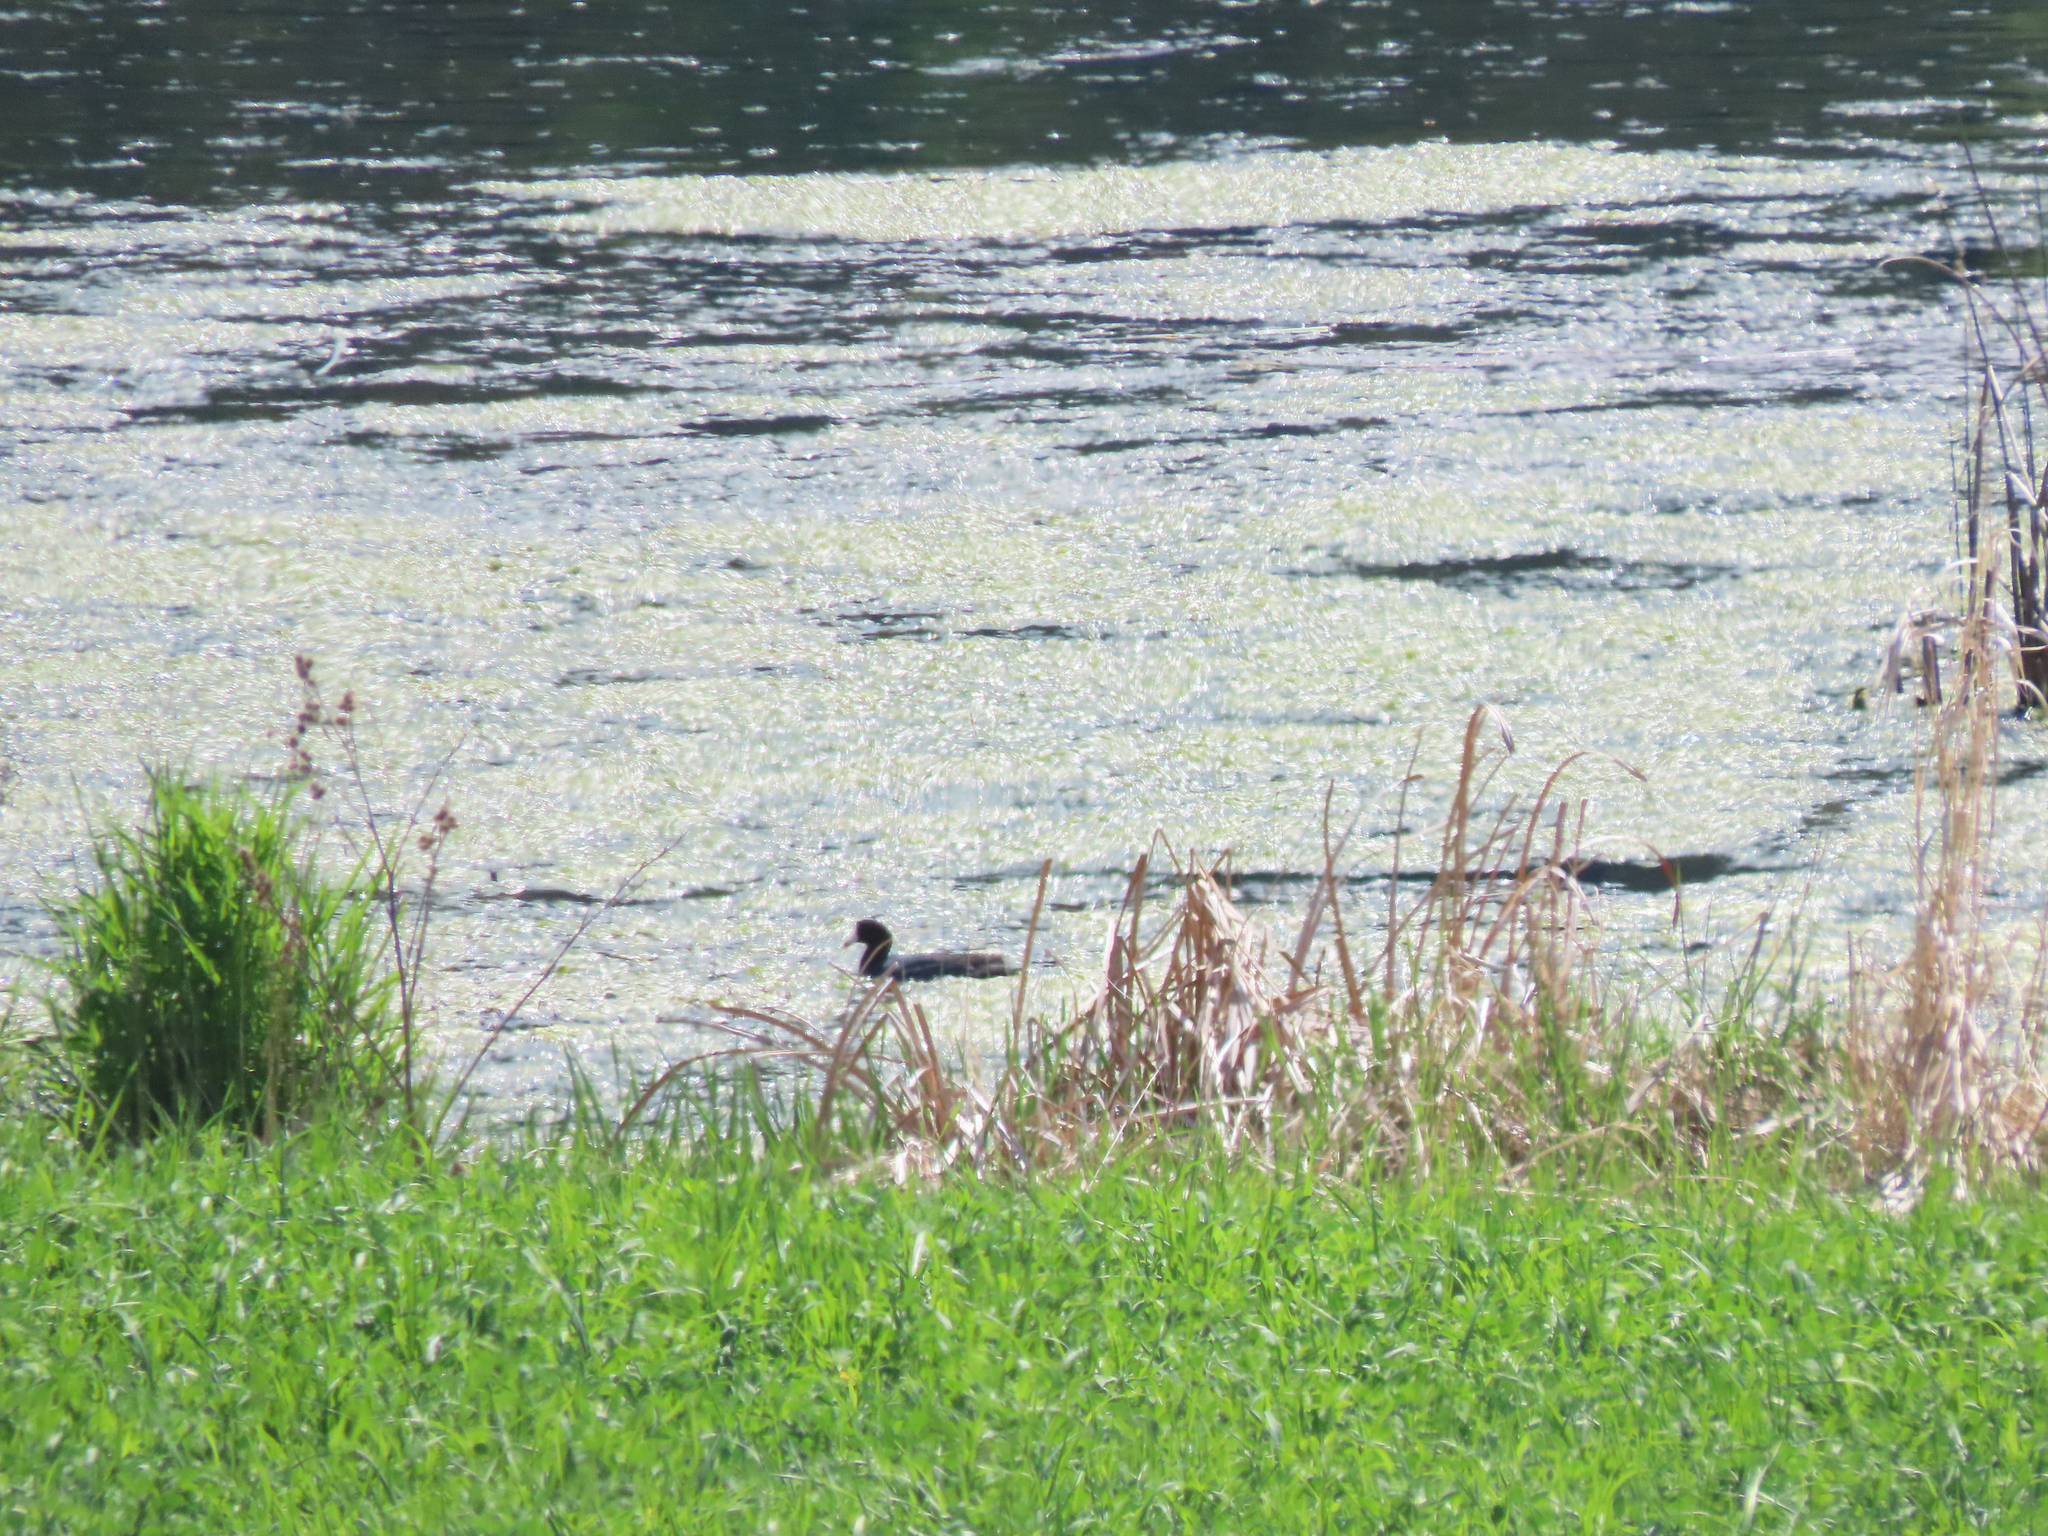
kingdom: Animalia
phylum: Chordata
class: Aves
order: Gruiformes
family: Rallidae
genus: Fulica
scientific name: Fulica americana
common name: American coot
